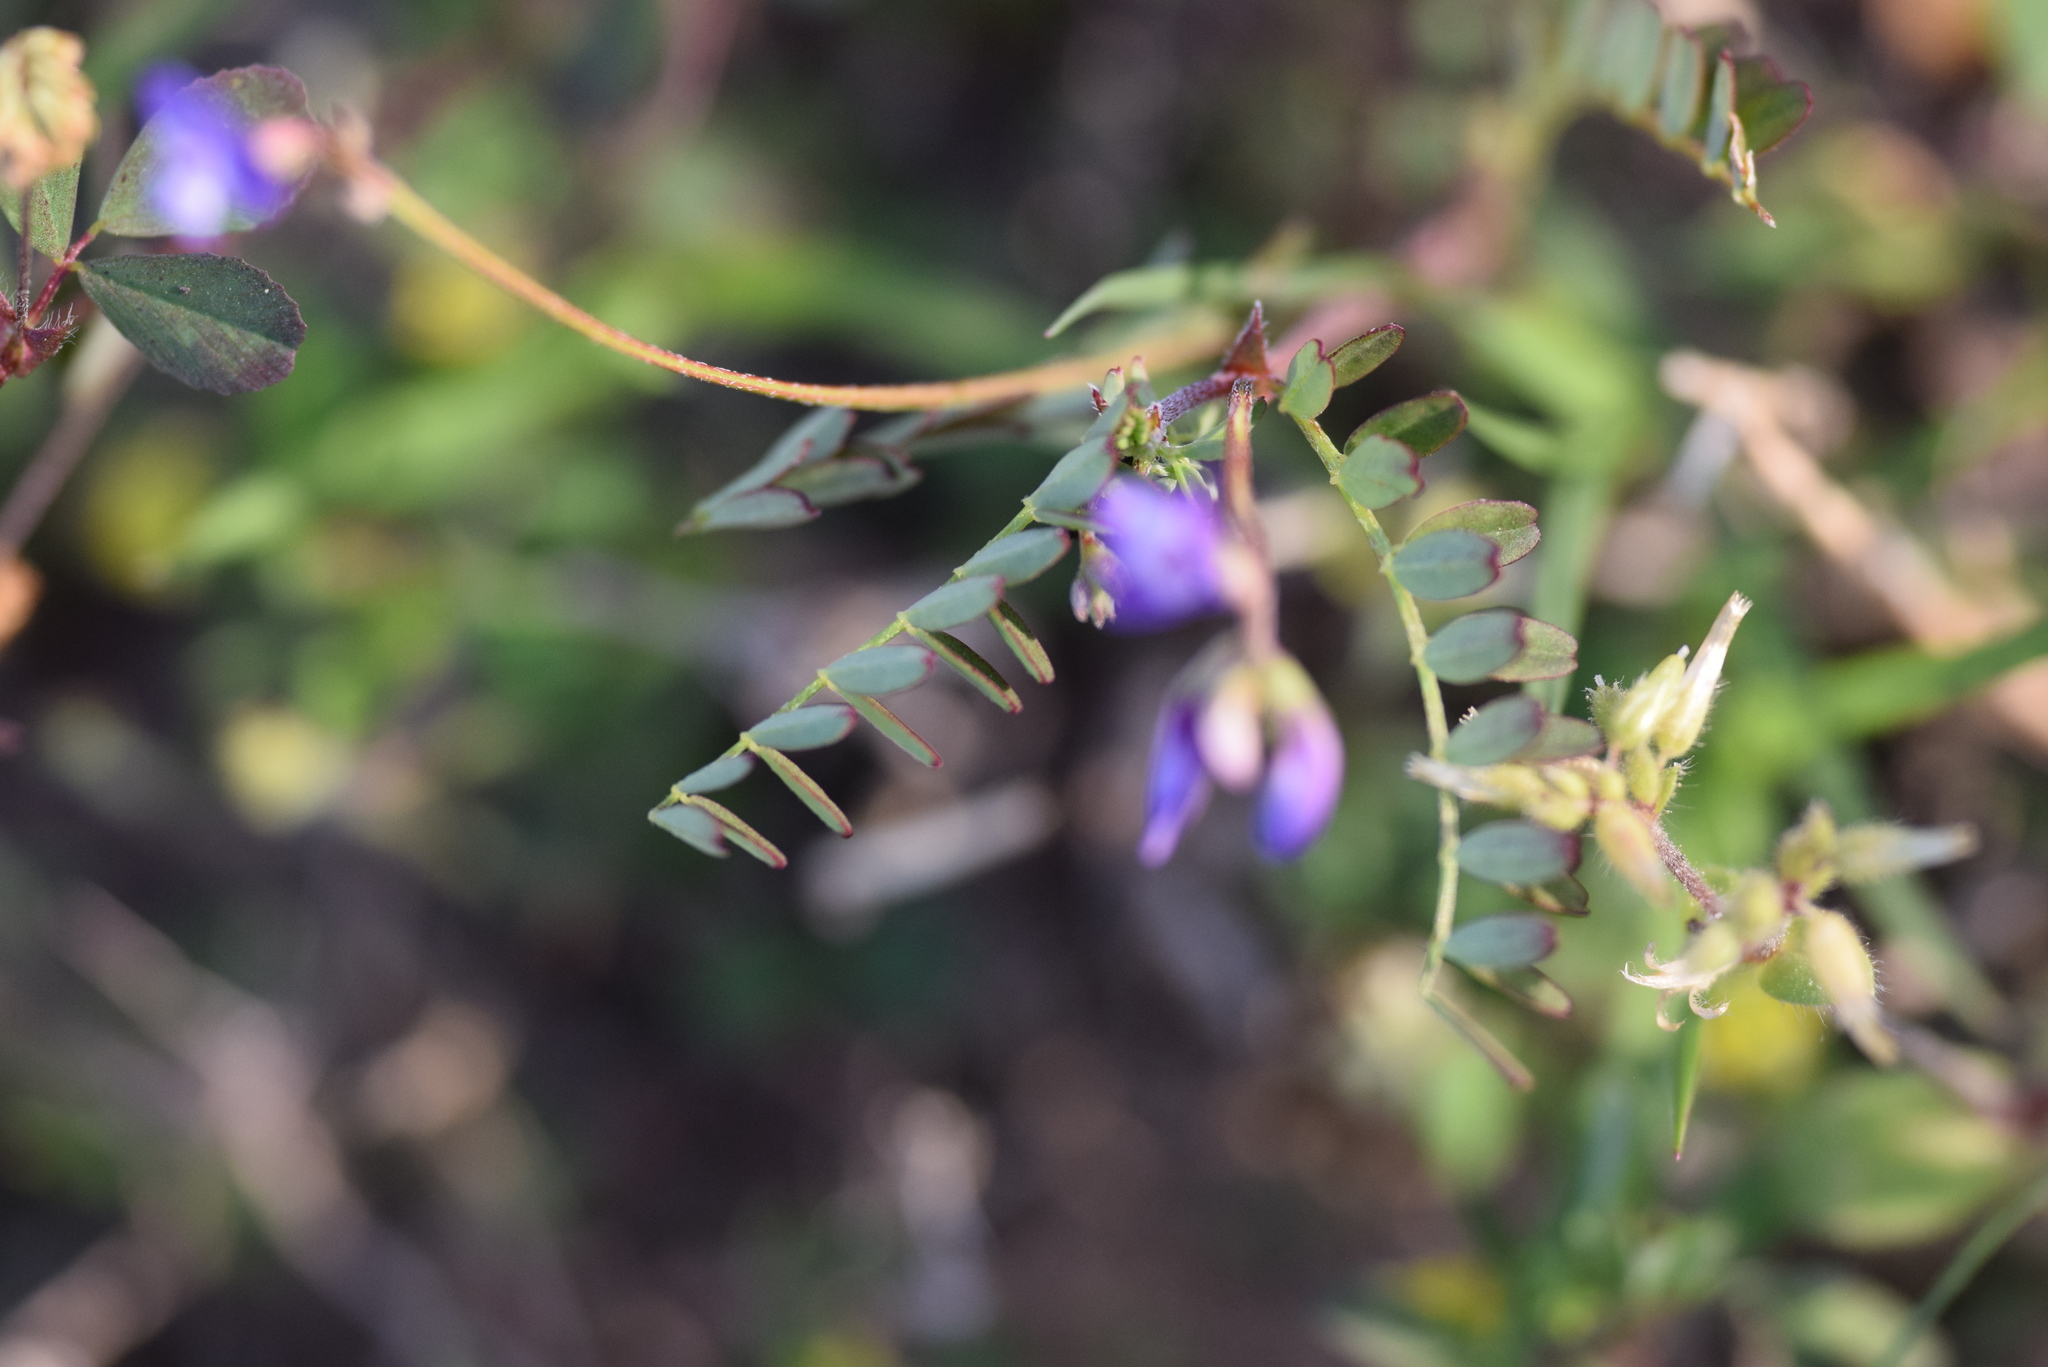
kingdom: Plantae
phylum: Tracheophyta
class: Magnoliopsida
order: Fabales
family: Fabaceae
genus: Astragalus
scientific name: Astragalus leptocarpus
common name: Bodkin milk-vetch
